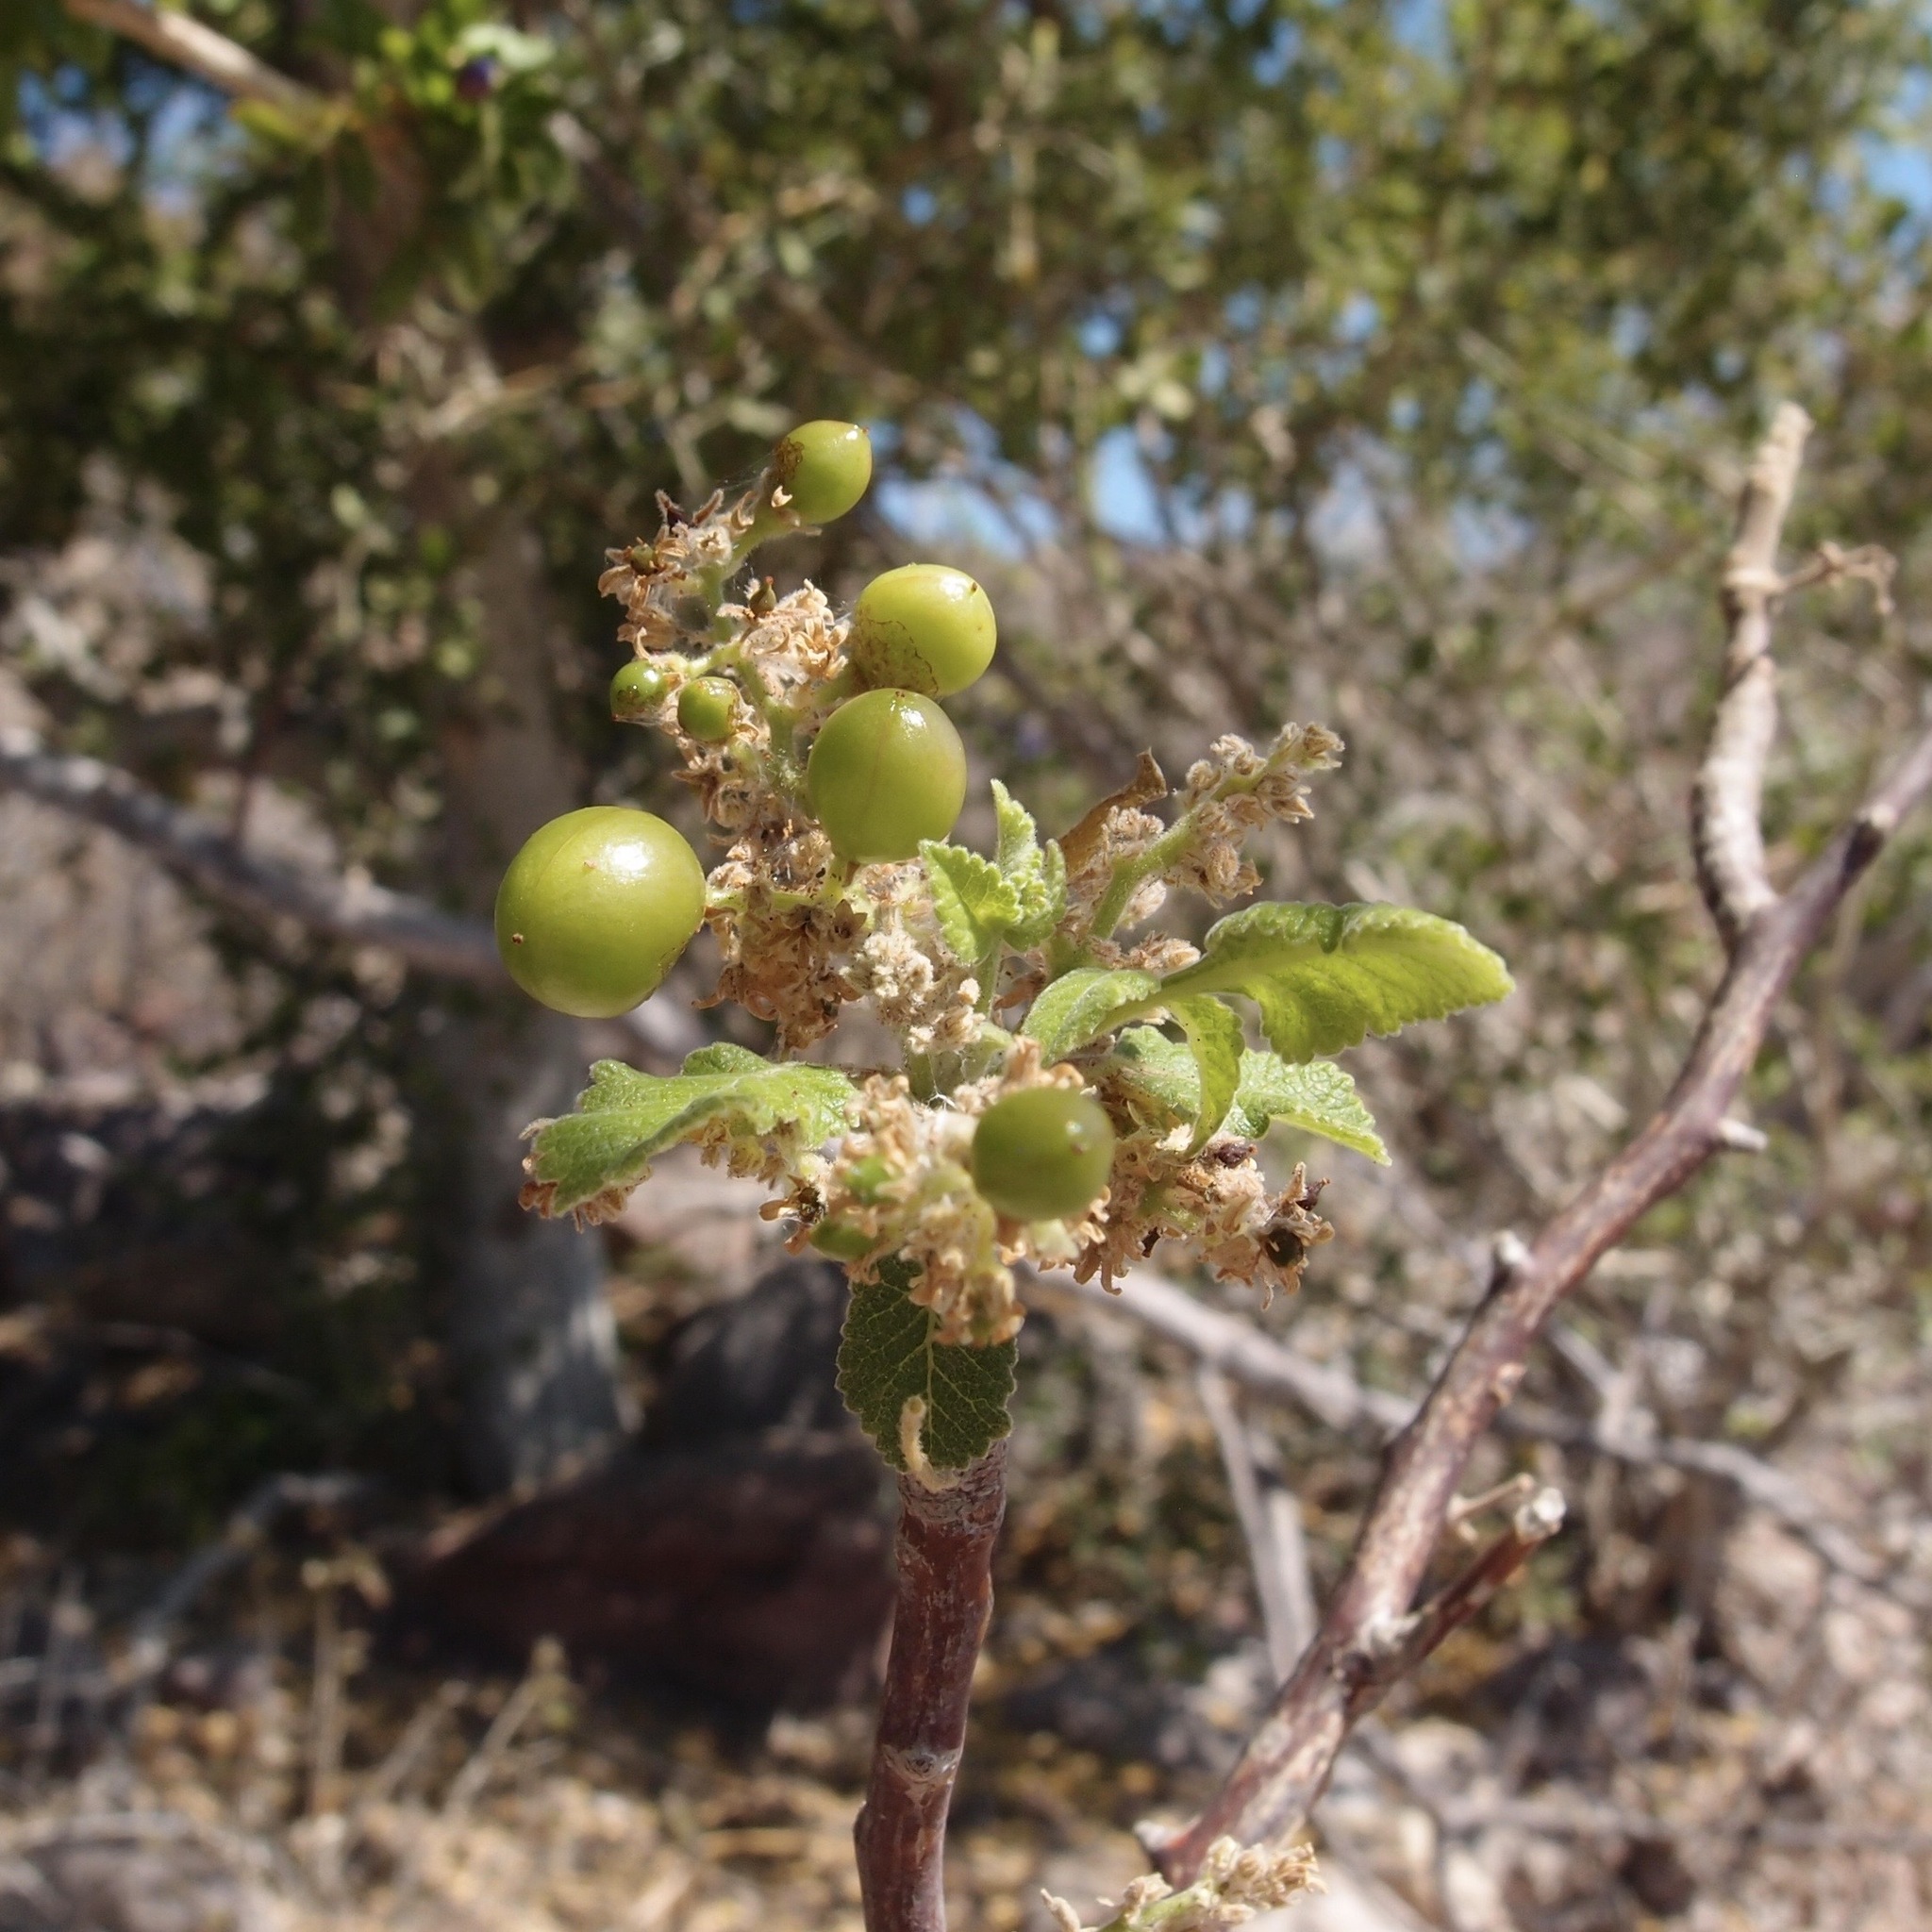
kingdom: Plantae
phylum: Tracheophyta
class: Magnoliopsida
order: Sapindales
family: Burseraceae
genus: Bursera
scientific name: Bursera hindsiana
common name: Red elephant tree
